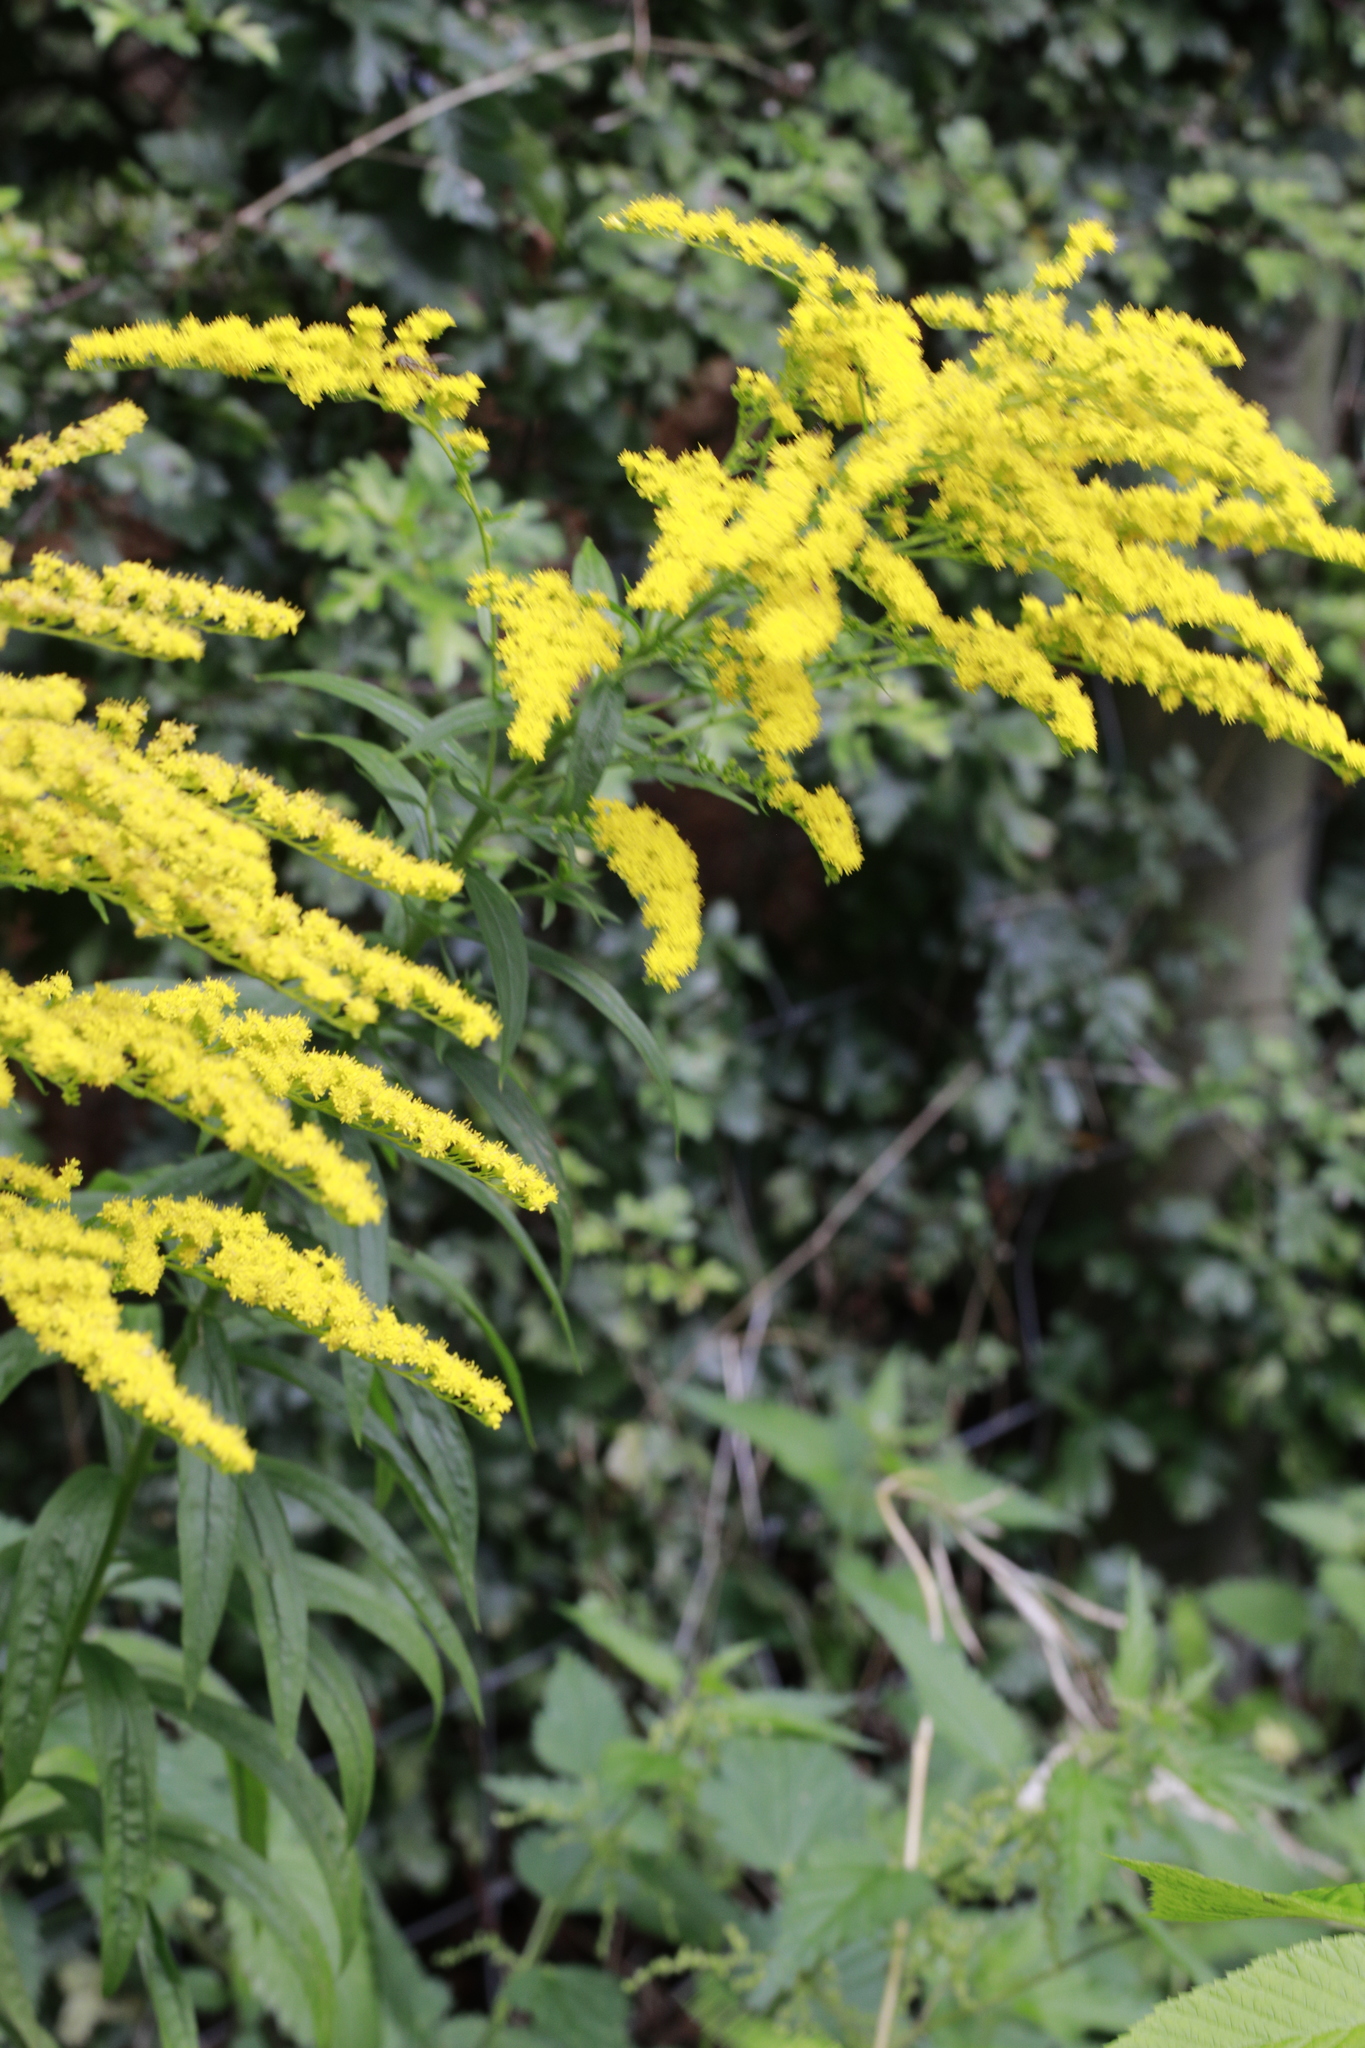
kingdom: Plantae
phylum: Tracheophyta
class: Magnoliopsida
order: Asterales
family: Asteraceae
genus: Solidago
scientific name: Solidago canadensis
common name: Canada goldenrod
